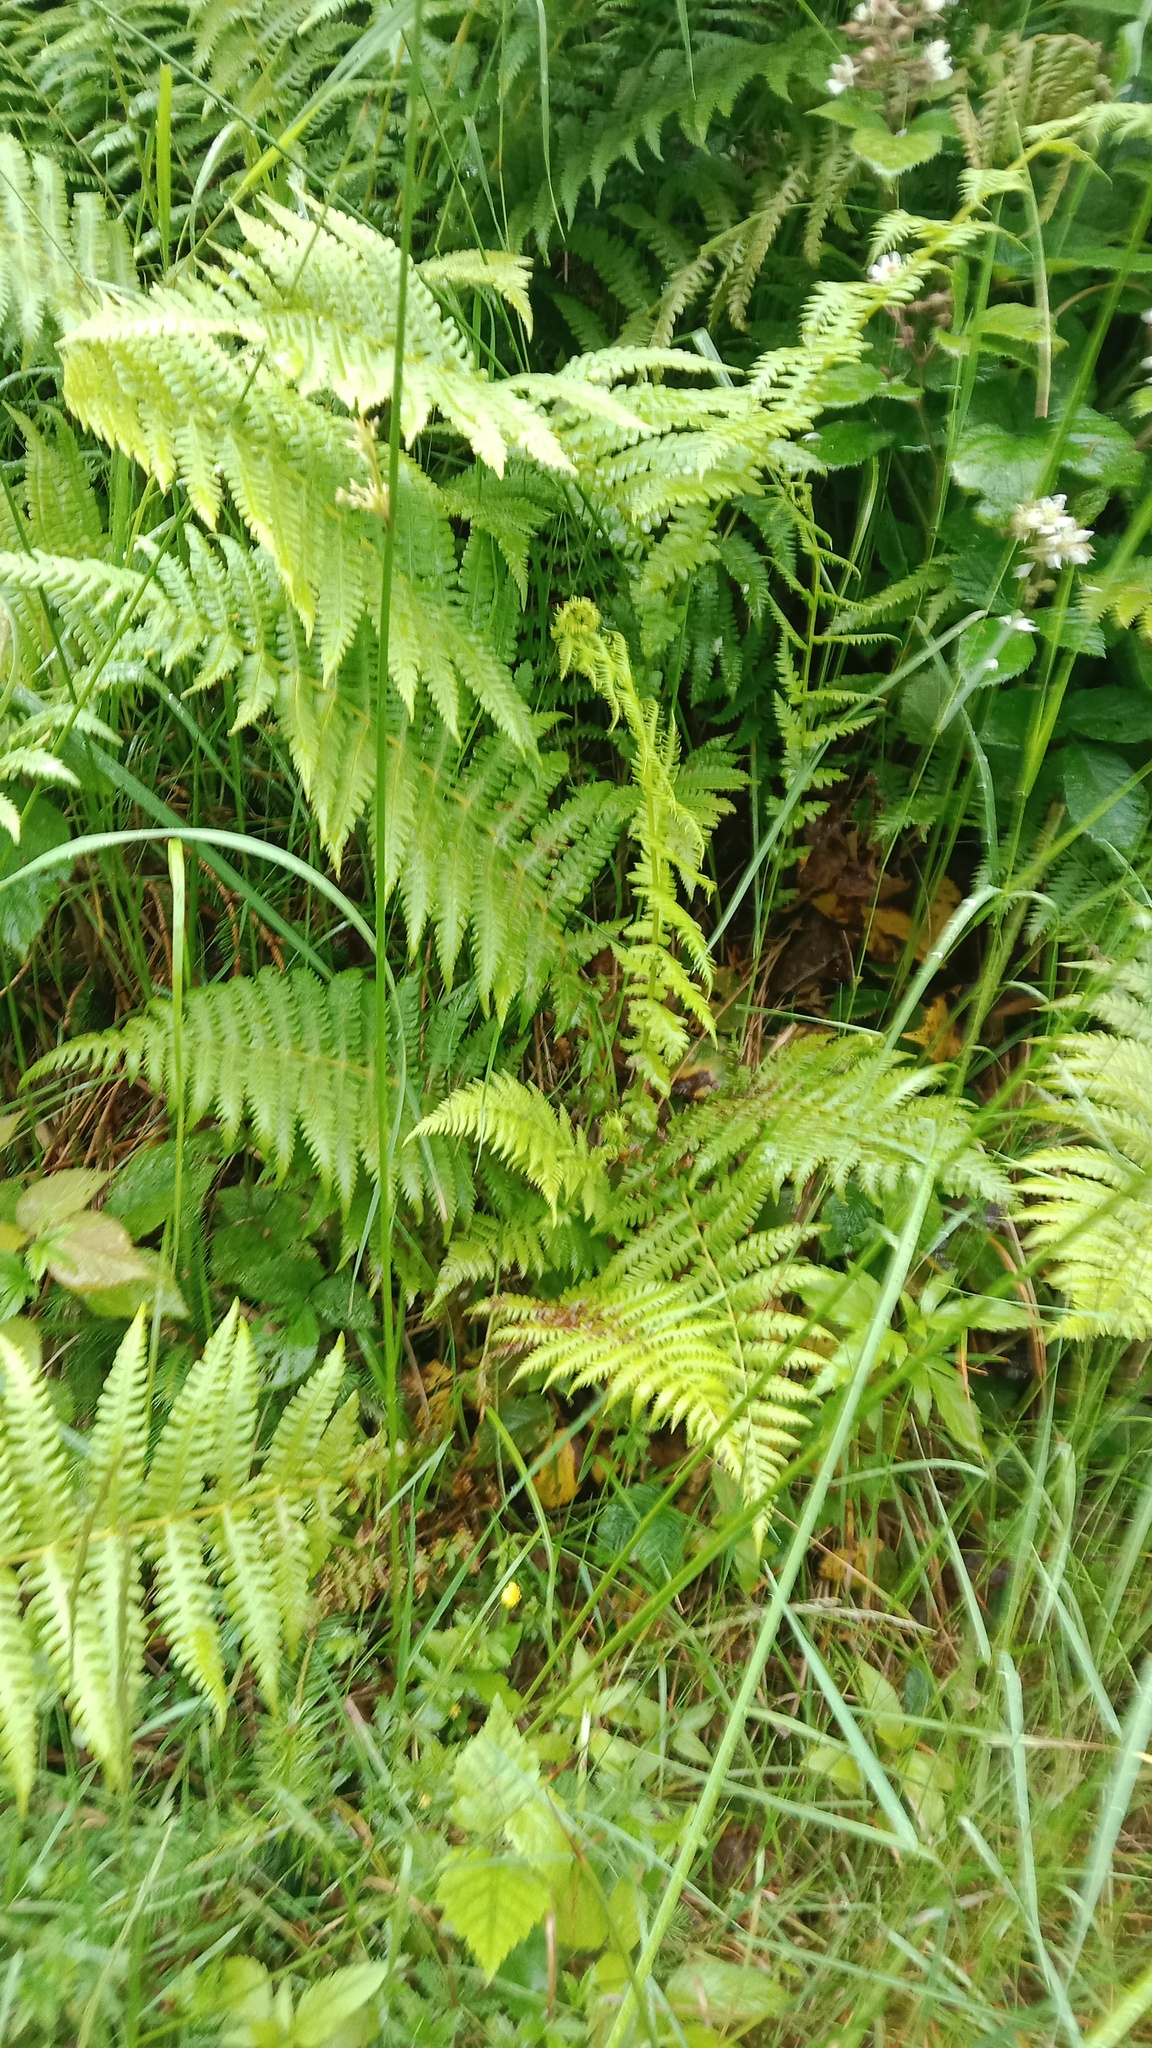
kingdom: Plantae
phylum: Tracheophyta
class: Polypodiopsida
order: Polypodiales
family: Thelypteridaceae
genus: Oreopteris
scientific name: Oreopteris limbosperma
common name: Lemon-scented fern
